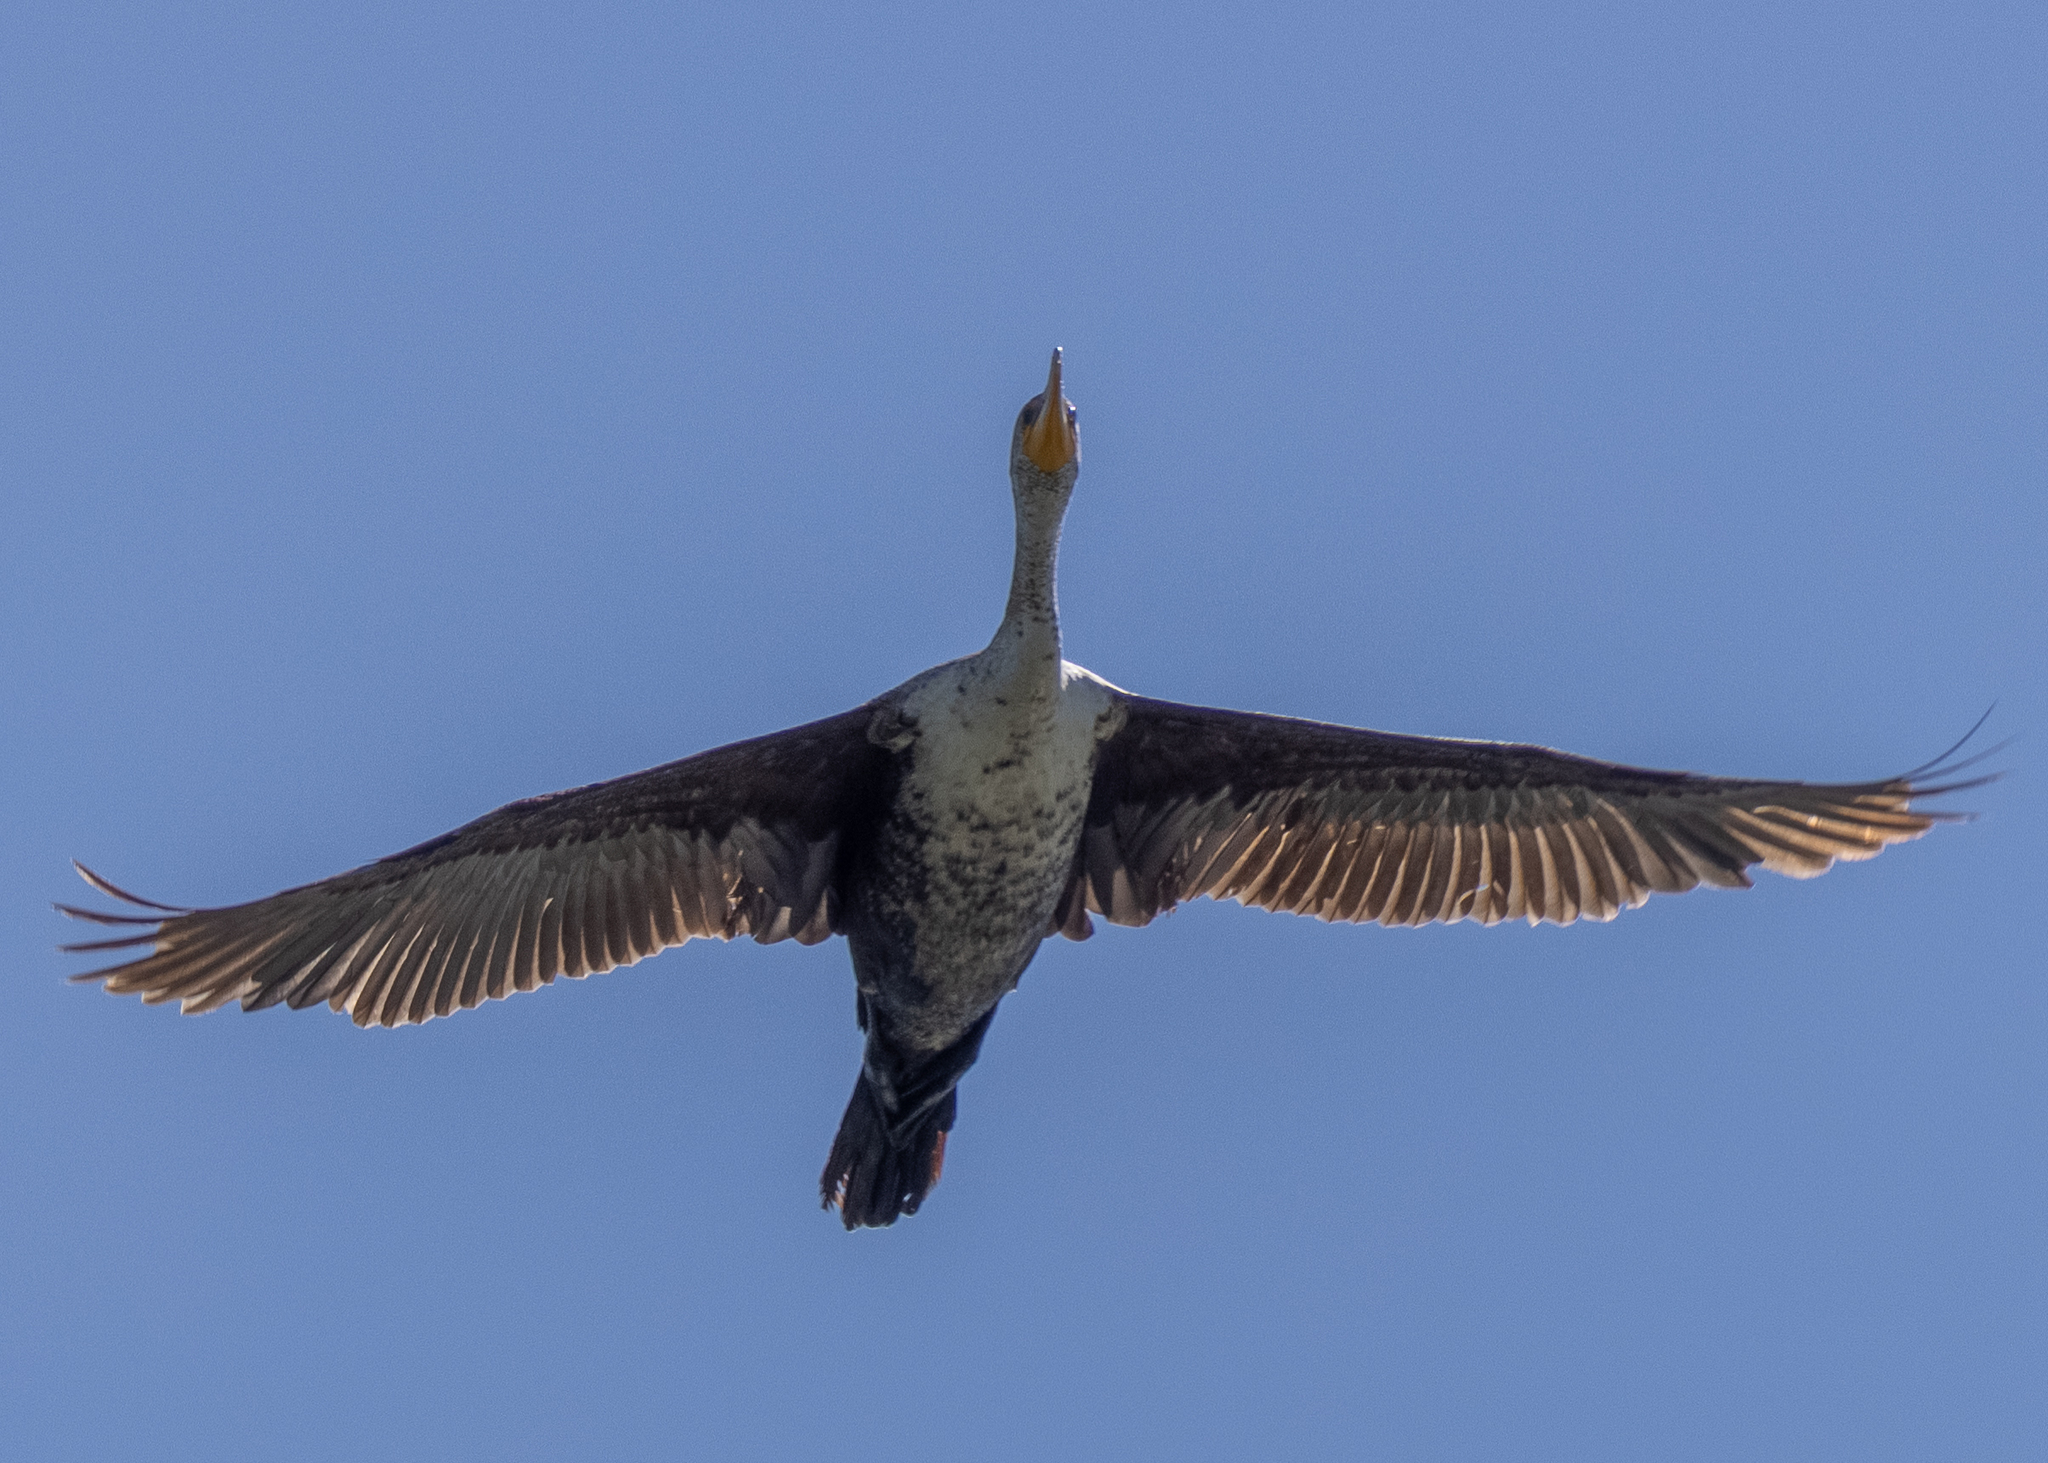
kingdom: Animalia
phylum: Chordata
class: Aves
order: Suliformes
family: Phalacrocoracidae
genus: Phalacrocorax
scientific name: Phalacrocorax auritus
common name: Double-crested cormorant
